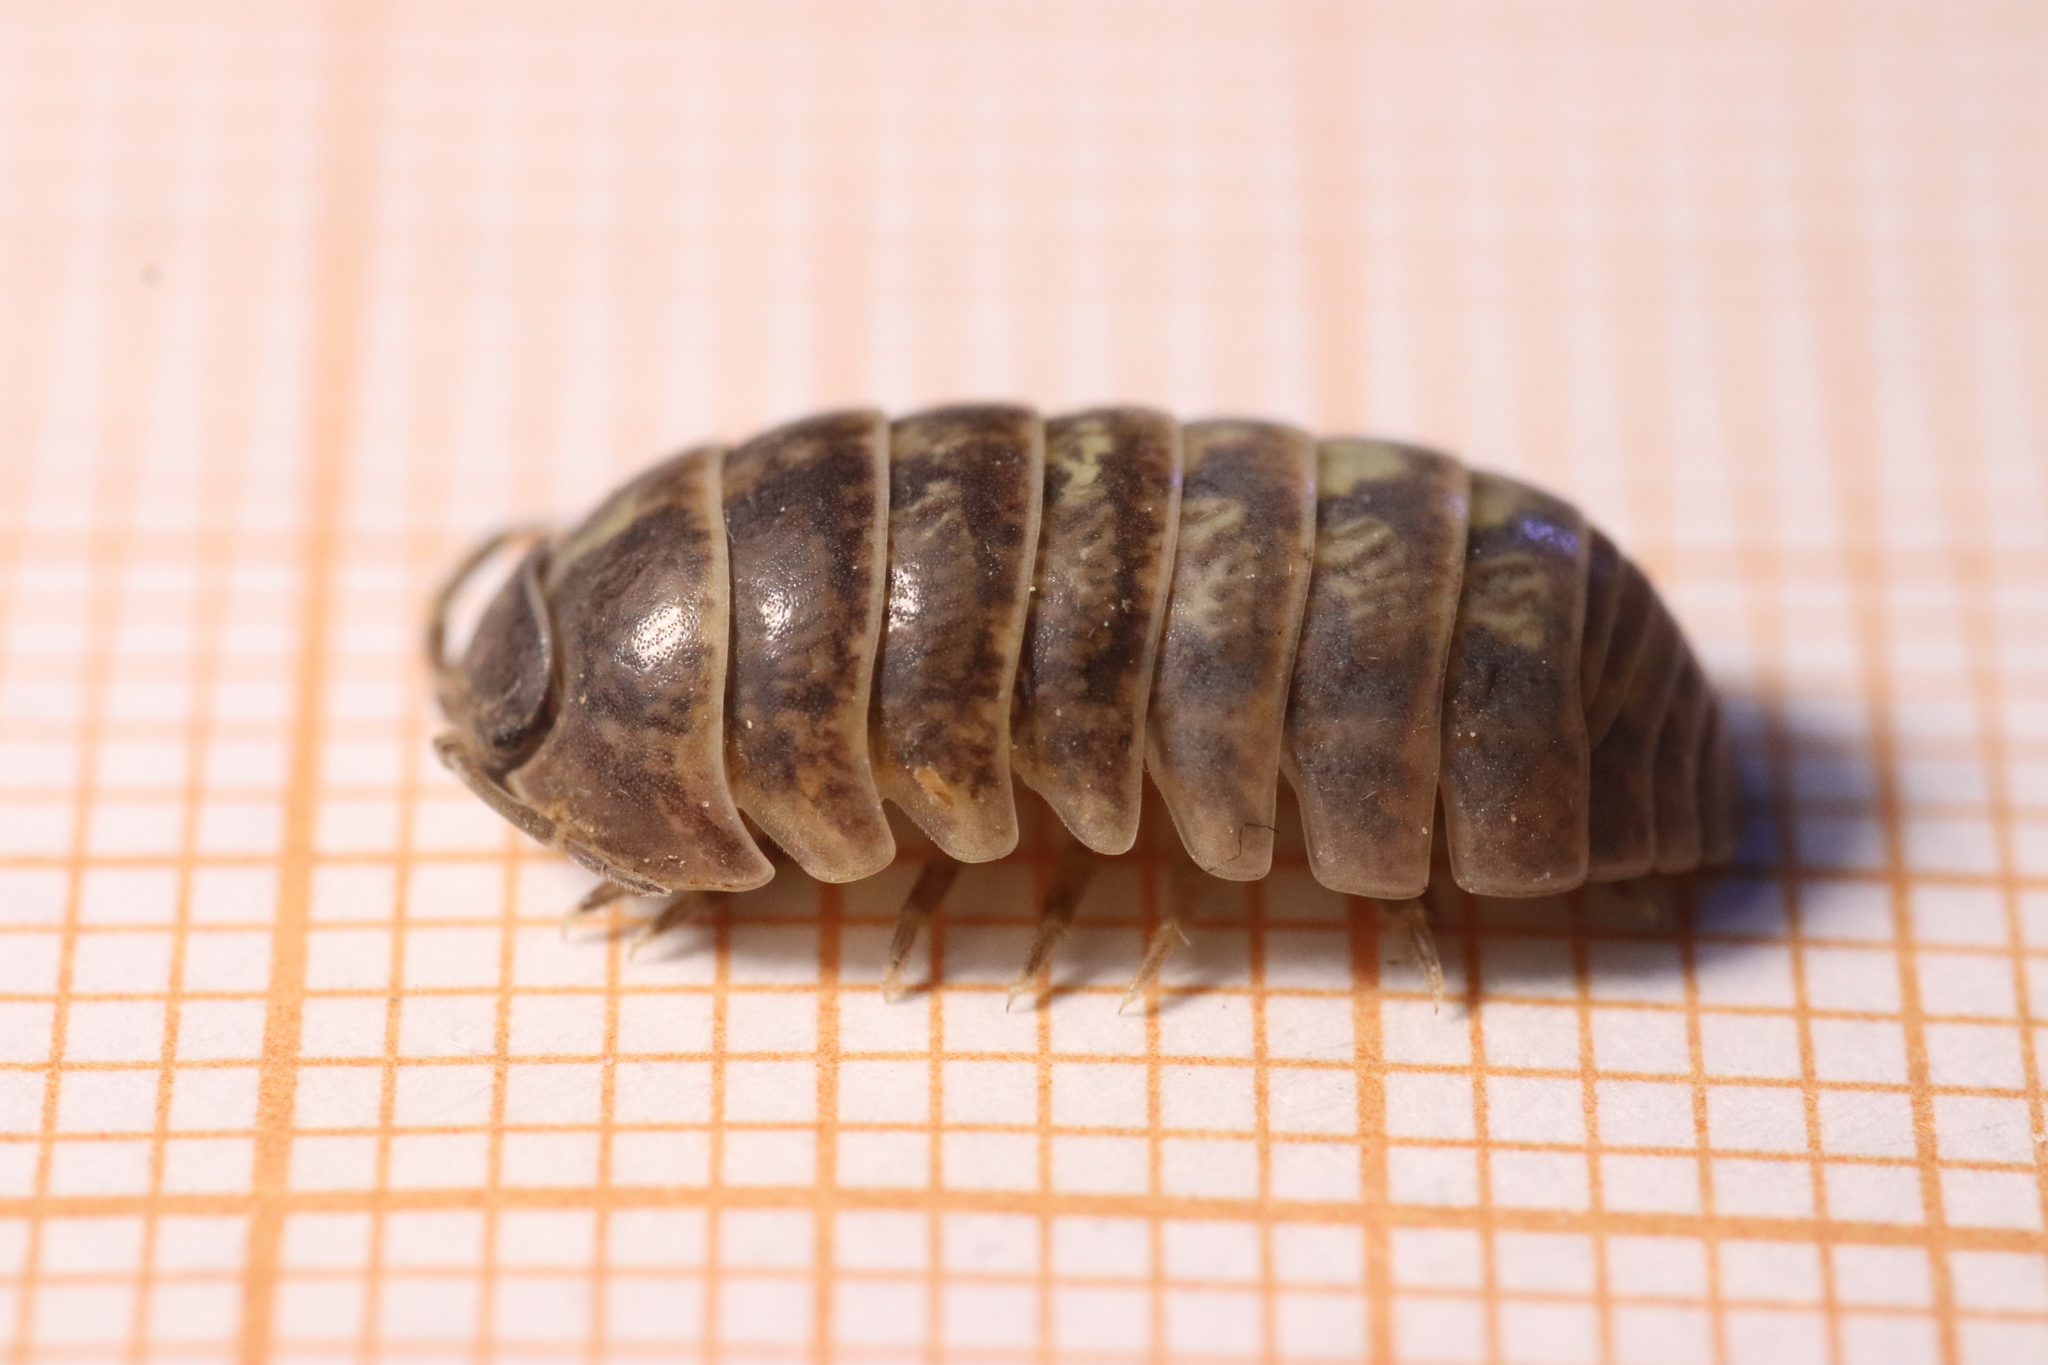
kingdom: Animalia
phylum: Arthropoda
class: Malacostraca
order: Isopoda
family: Armadillidiidae
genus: Armadillidium
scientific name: Armadillidium vulgare
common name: Common pill woodlouse
